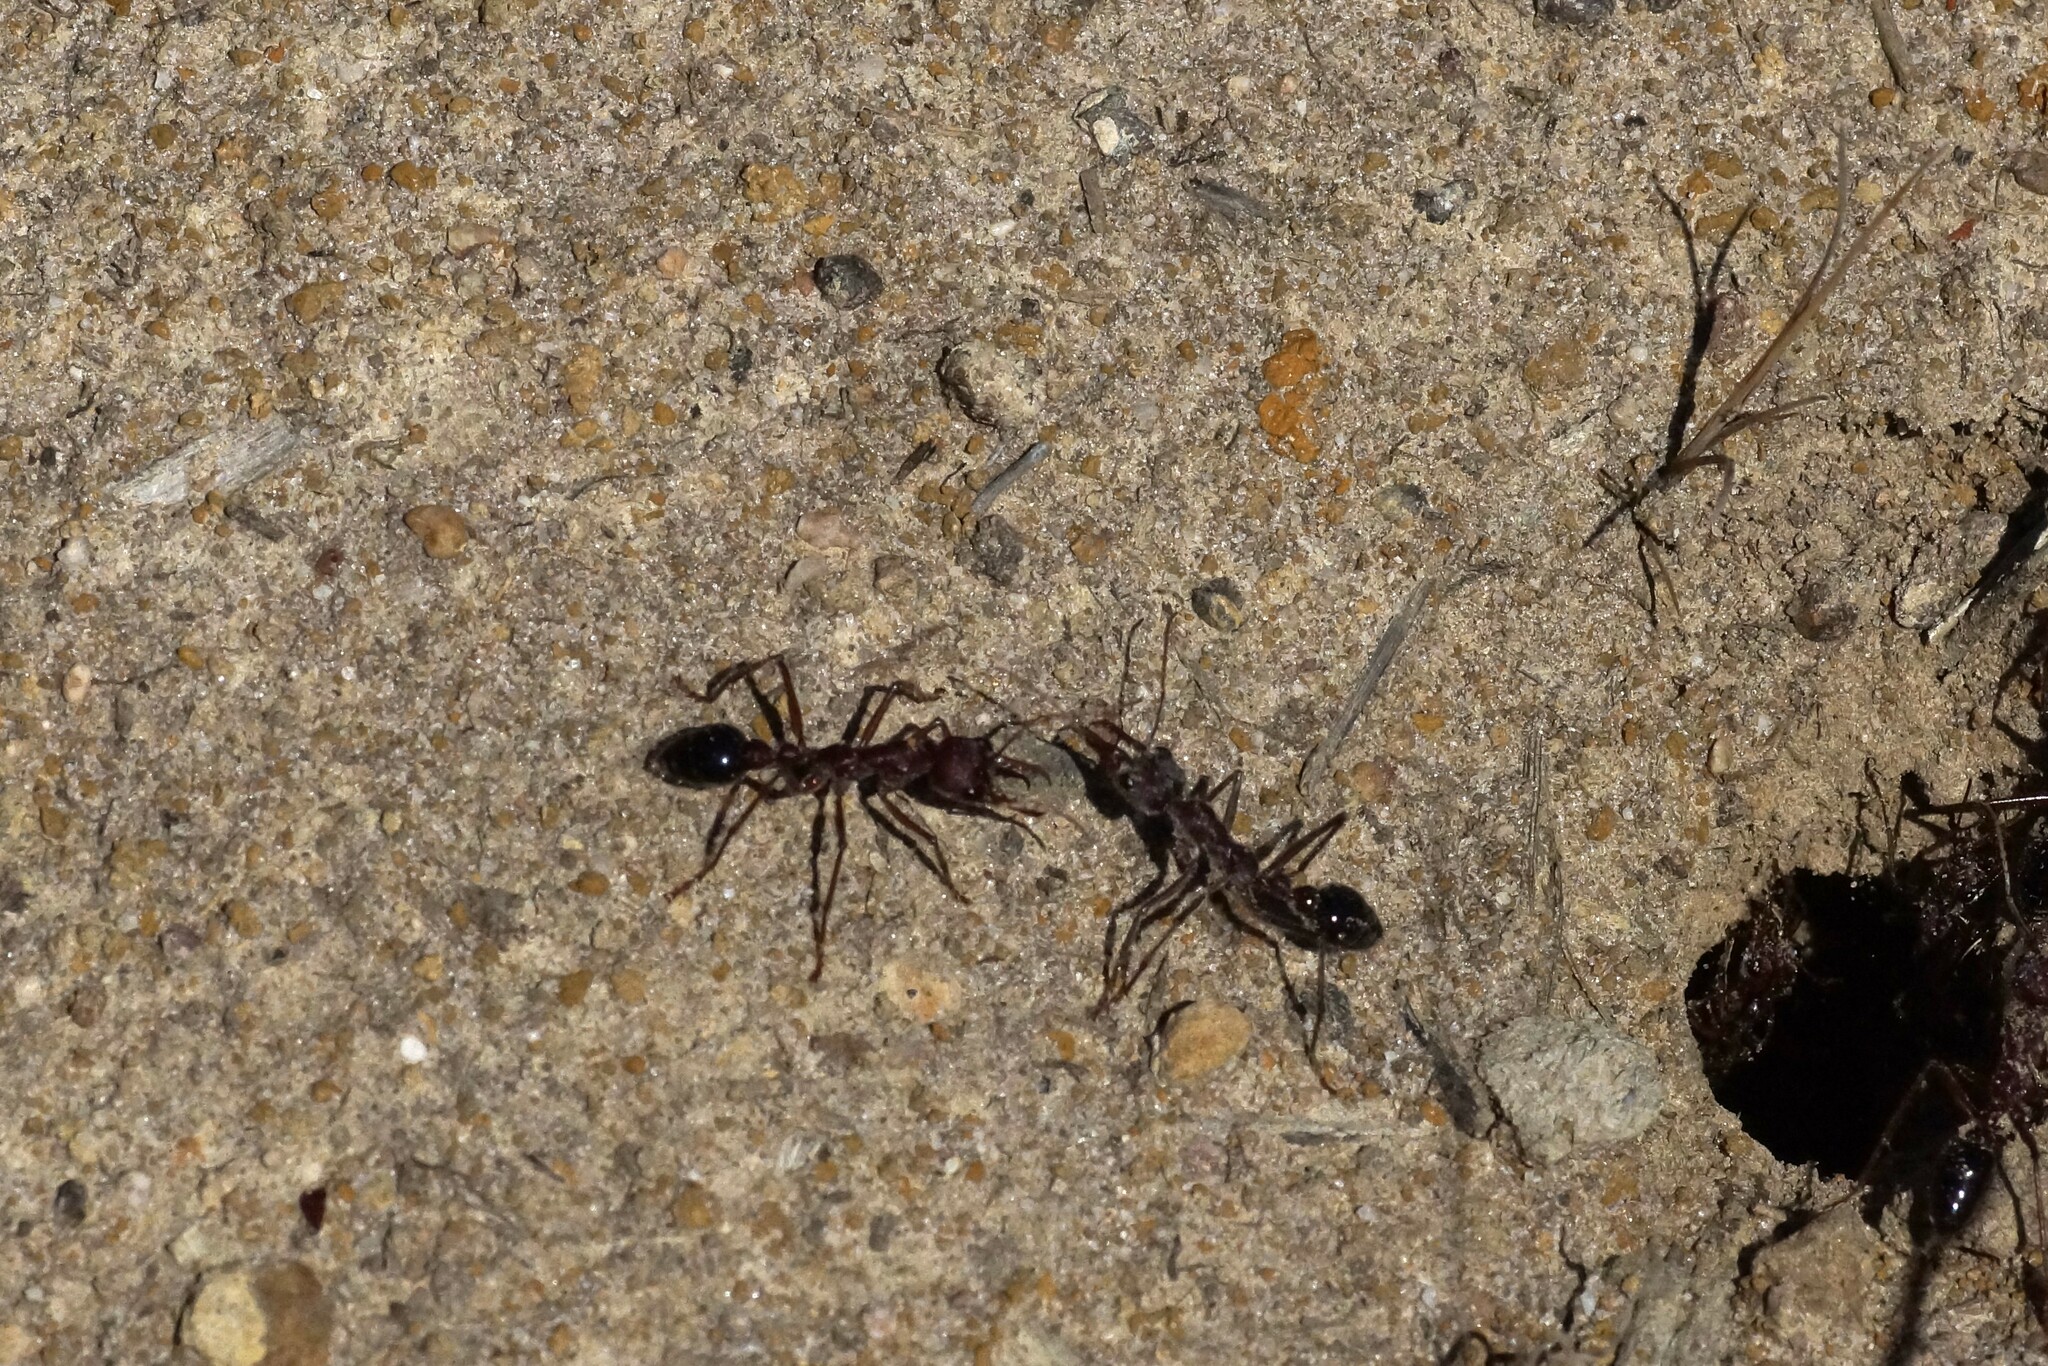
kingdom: Animalia
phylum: Arthropoda
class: Insecta
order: Hymenoptera
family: Formicidae
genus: Myrmecia
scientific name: Myrmecia simillima
